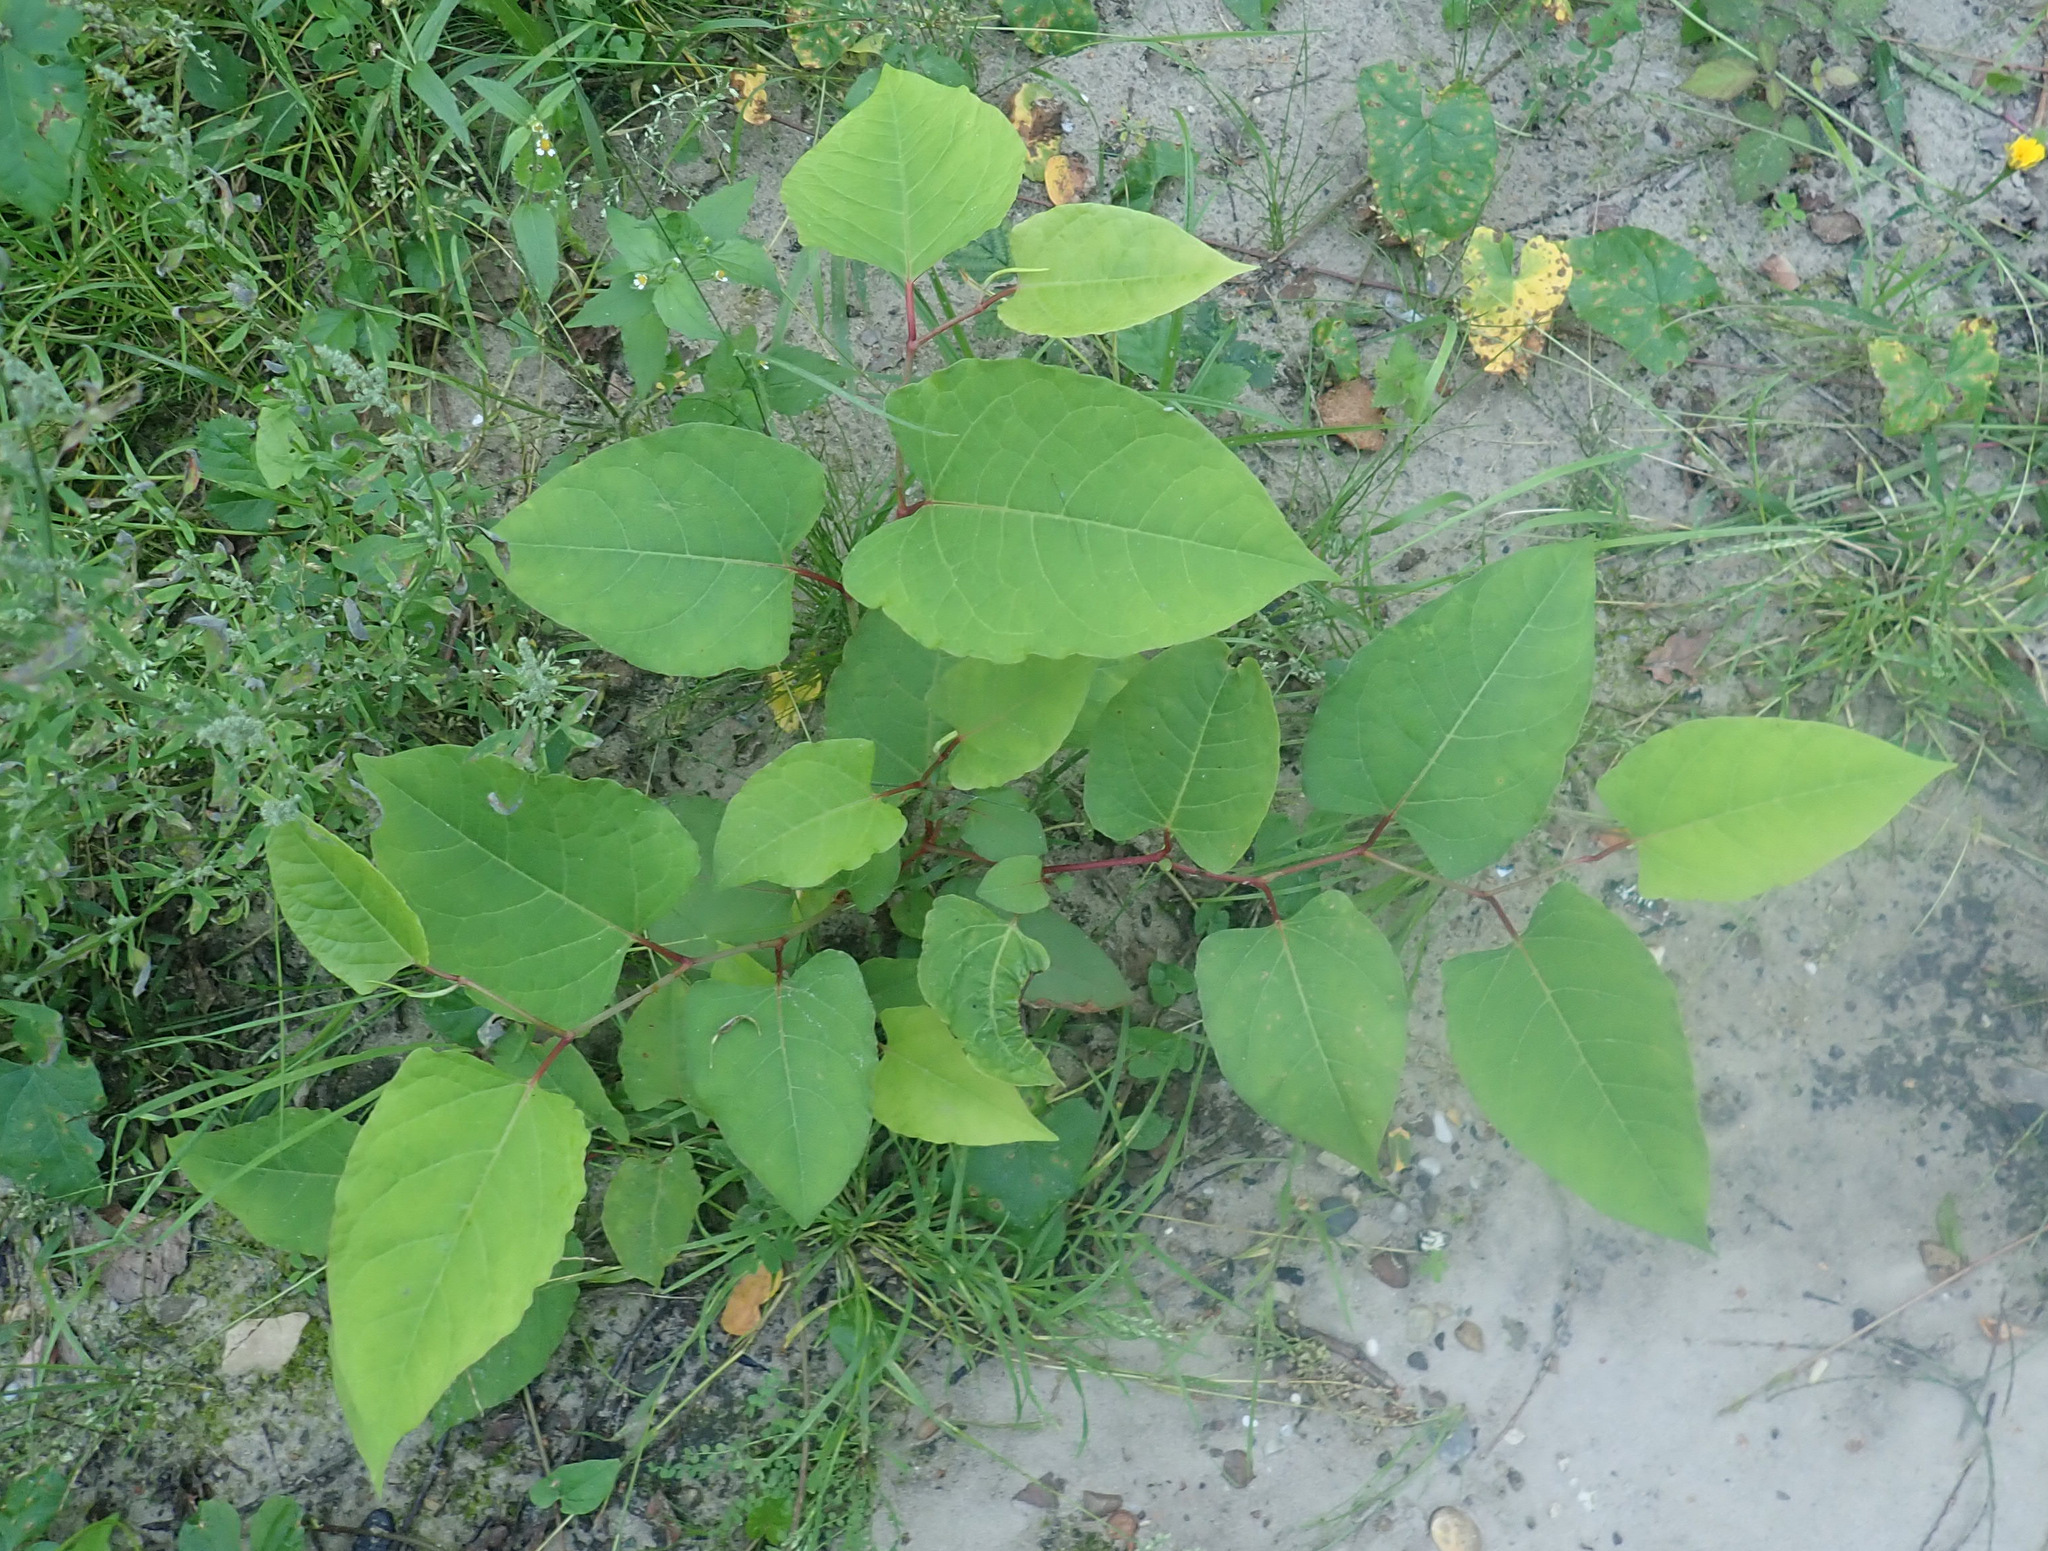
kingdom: Plantae
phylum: Tracheophyta
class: Magnoliopsida
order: Caryophyllales
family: Polygonaceae
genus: Reynoutria
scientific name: Reynoutria bohemica
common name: Bohemian knotweed
